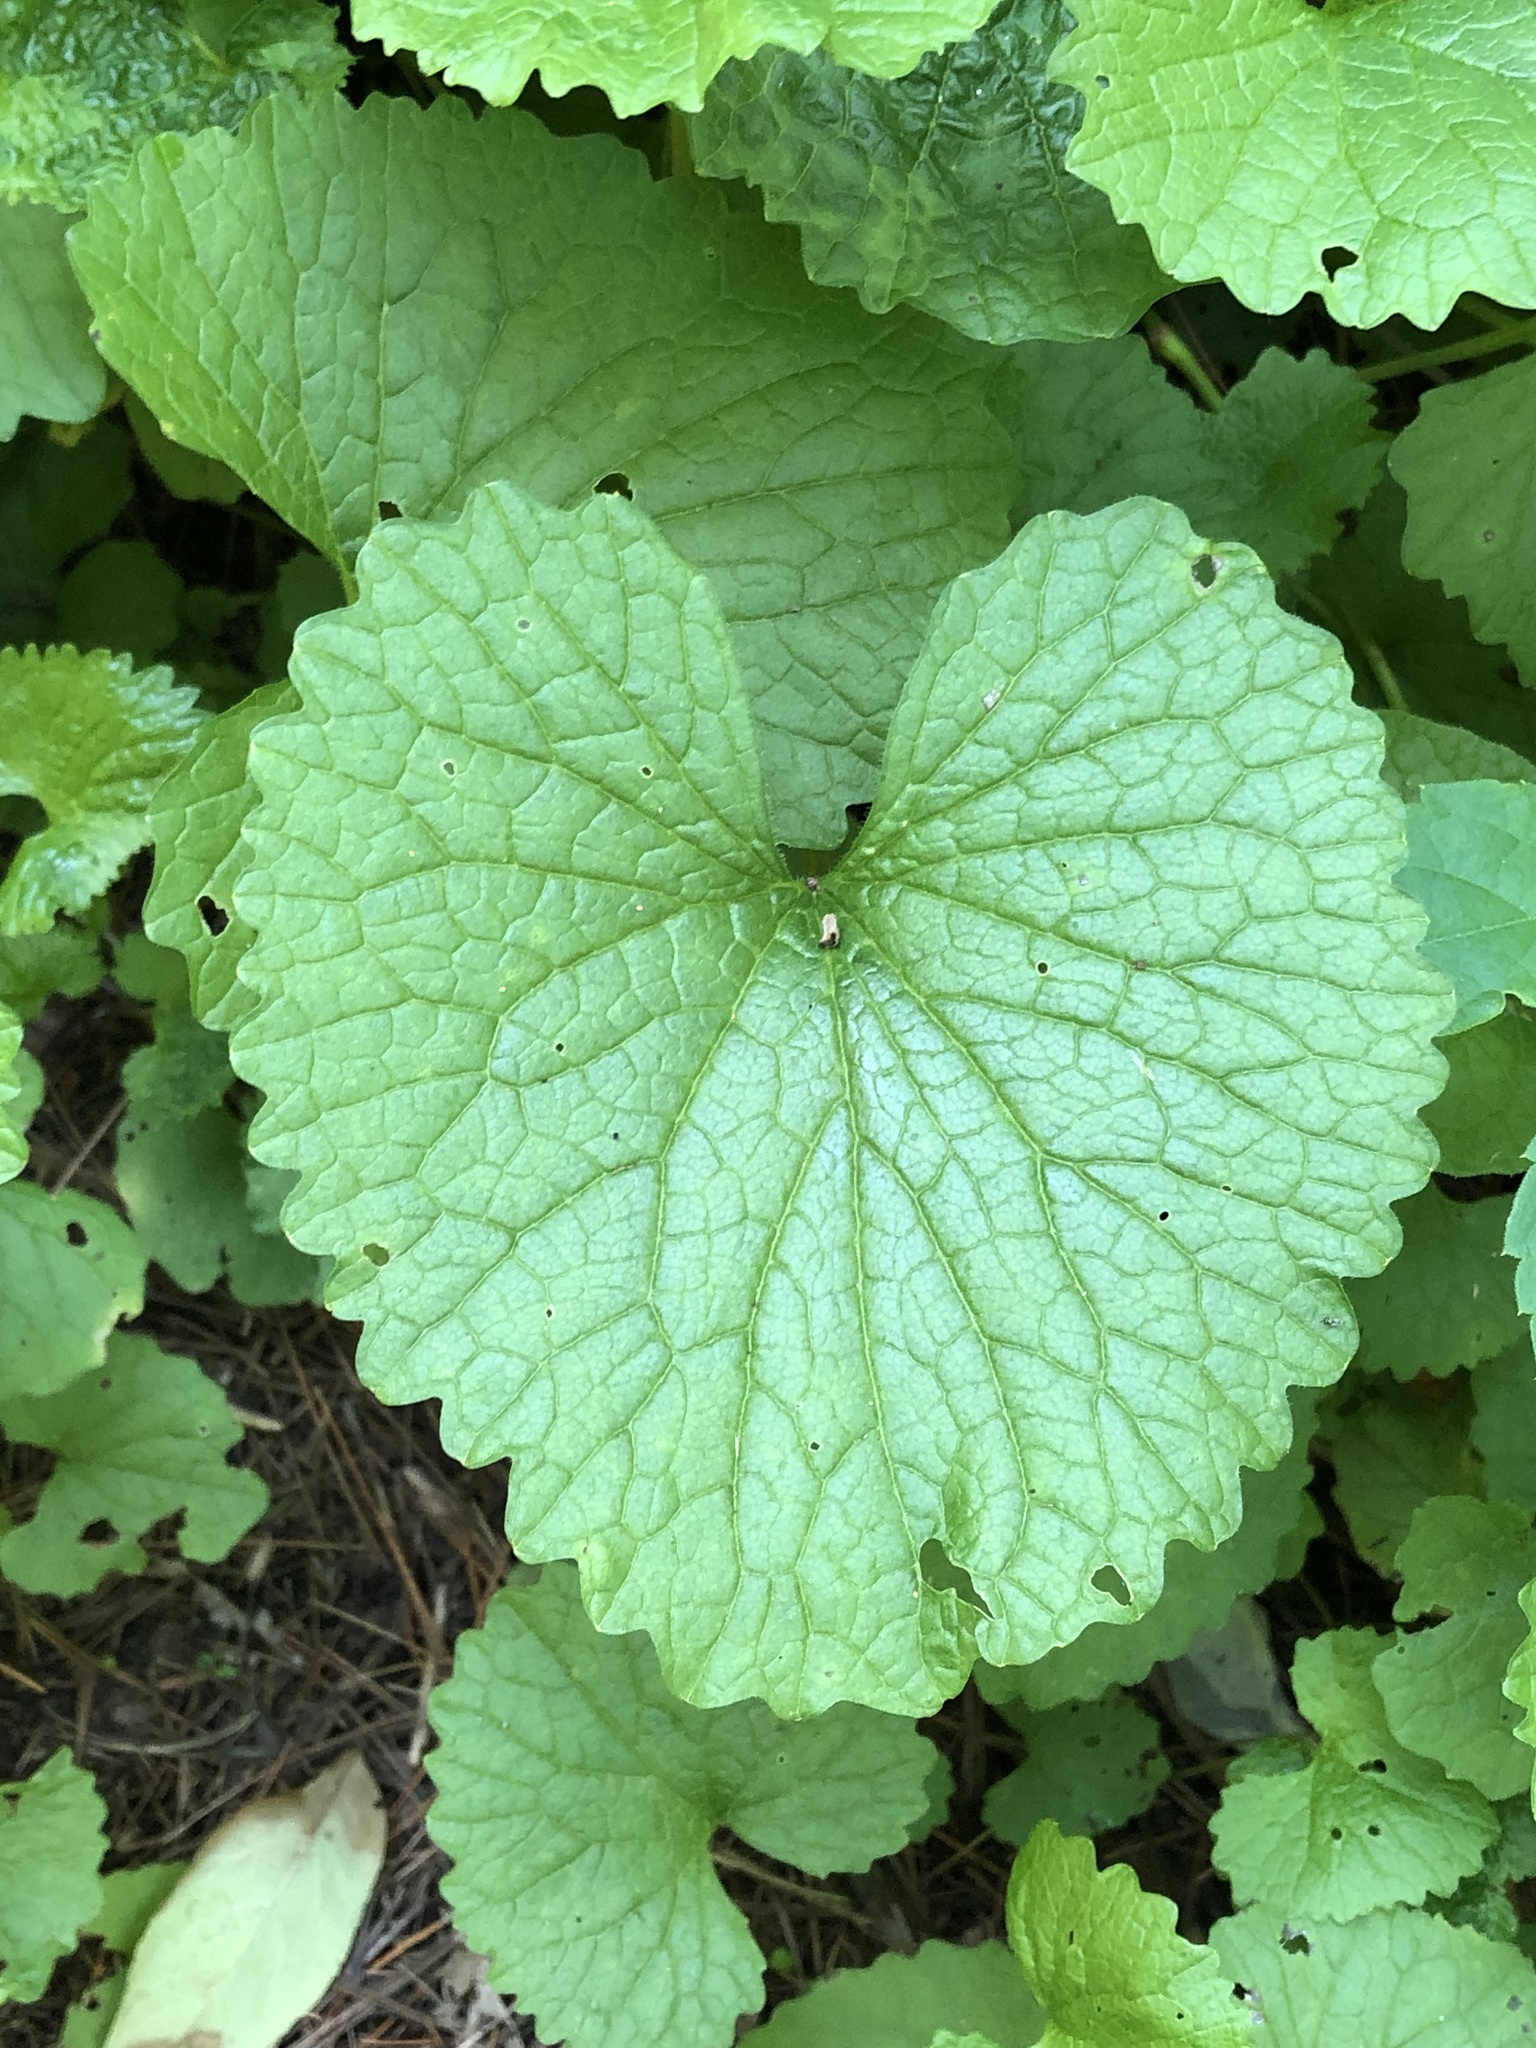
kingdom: Plantae
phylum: Tracheophyta
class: Magnoliopsida
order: Brassicales
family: Brassicaceae
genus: Alliaria
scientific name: Alliaria petiolata
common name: Garlic mustard
